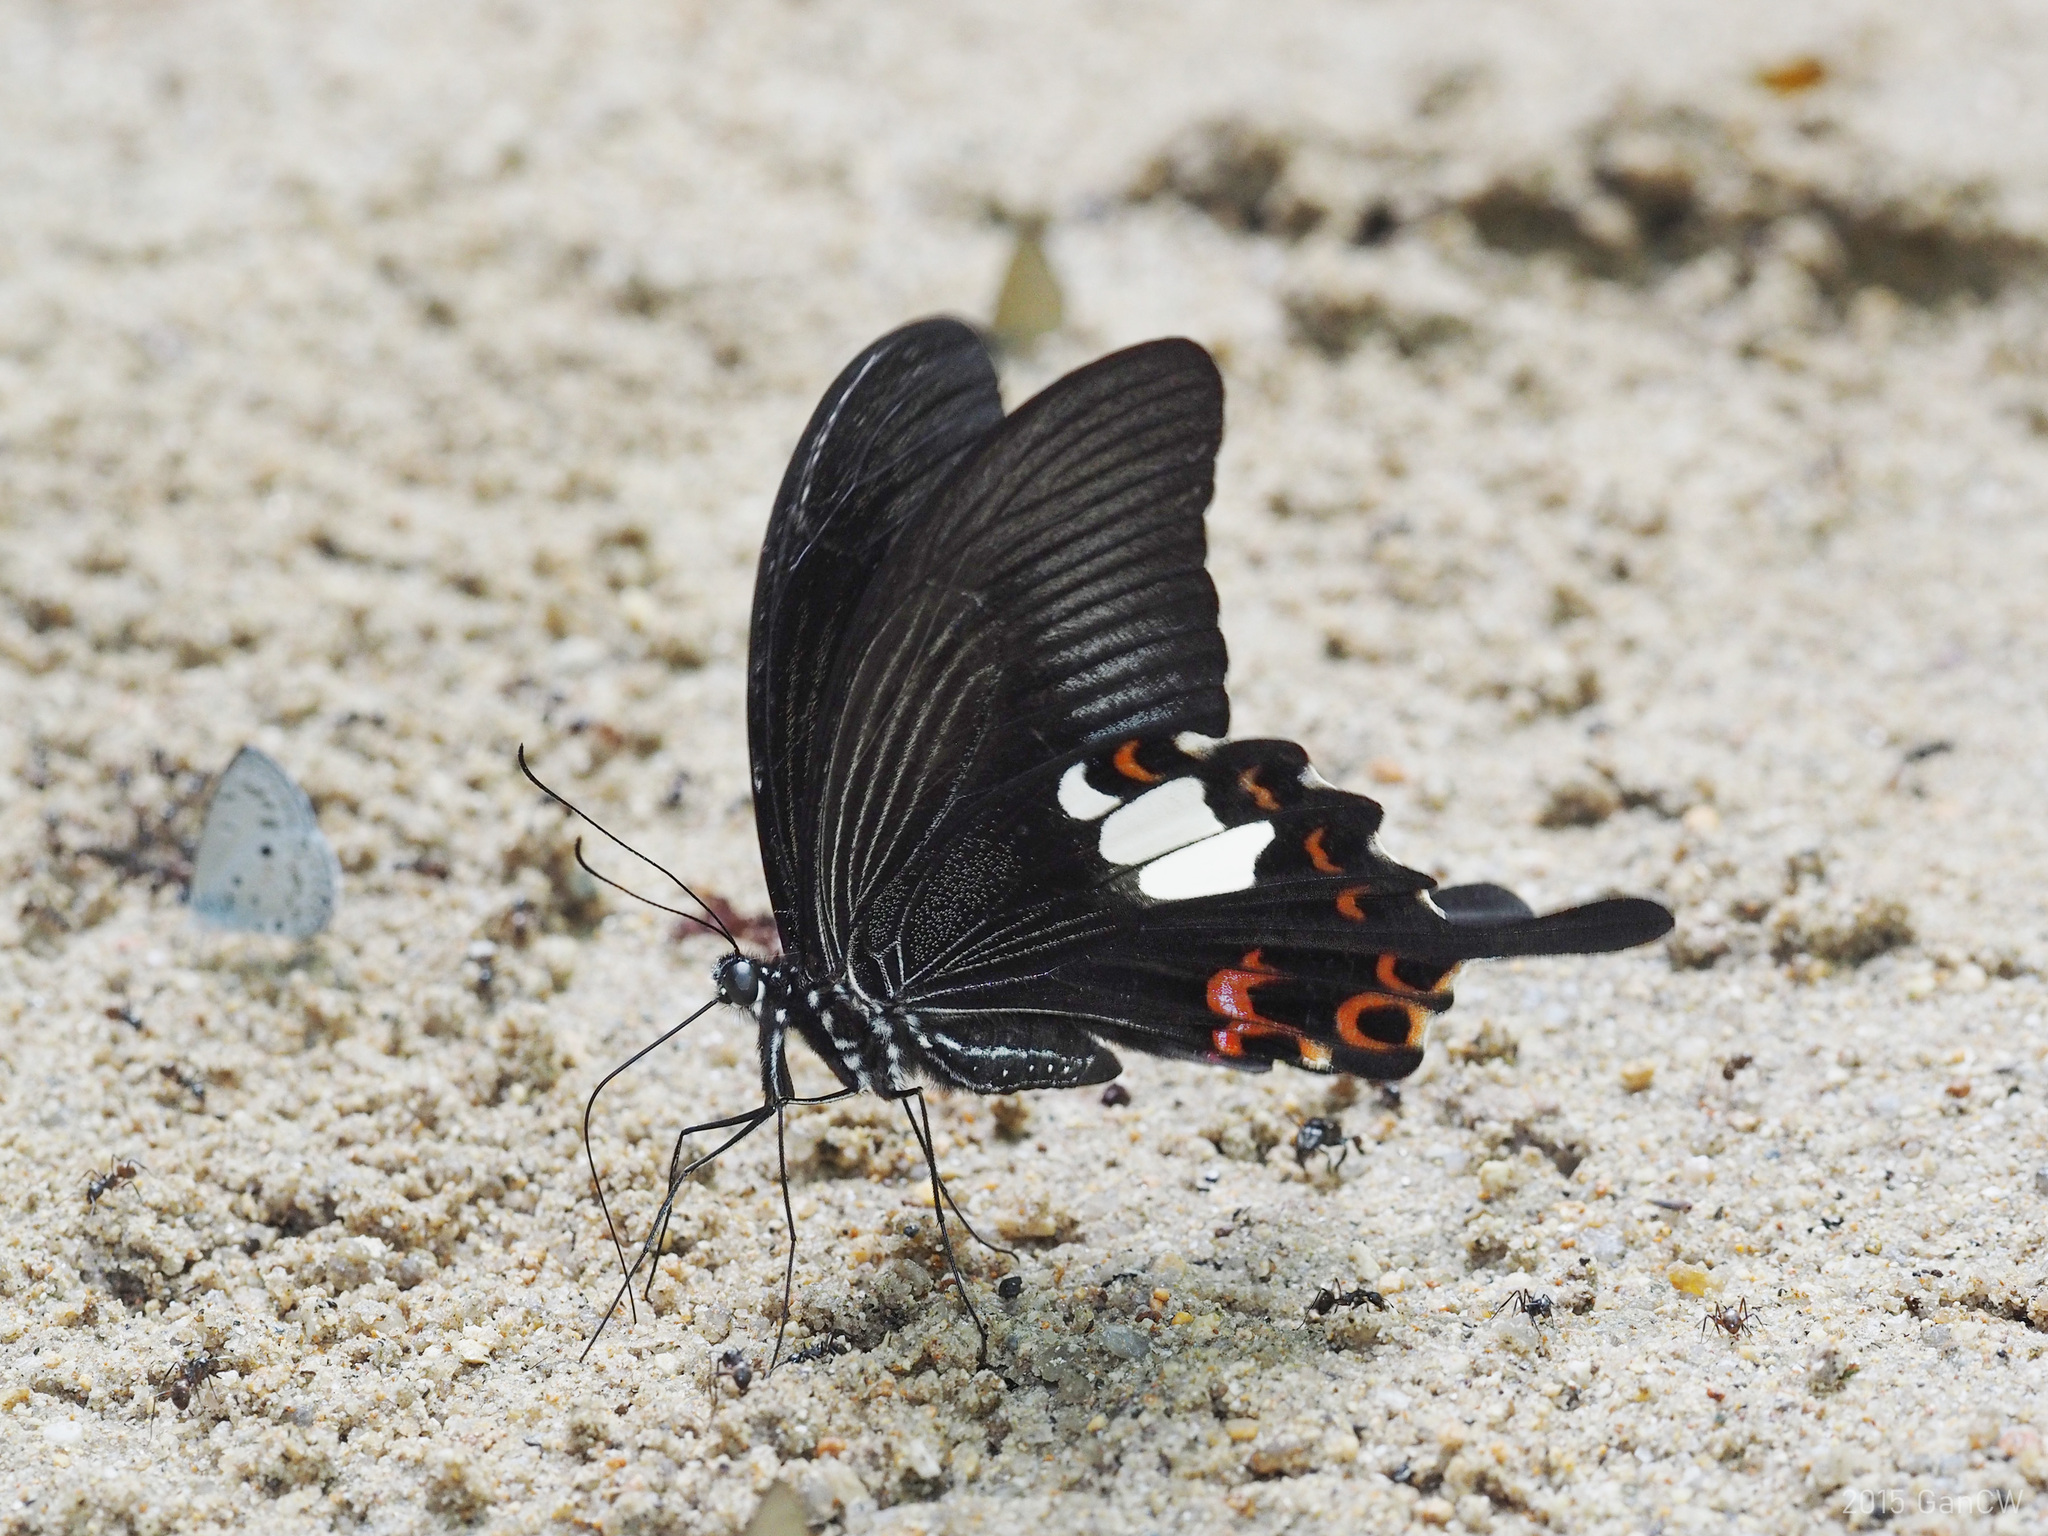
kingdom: Animalia
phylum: Arthropoda
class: Insecta
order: Lepidoptera
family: Papilionidae
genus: Papilio
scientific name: Papilio helenus
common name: Red helen
